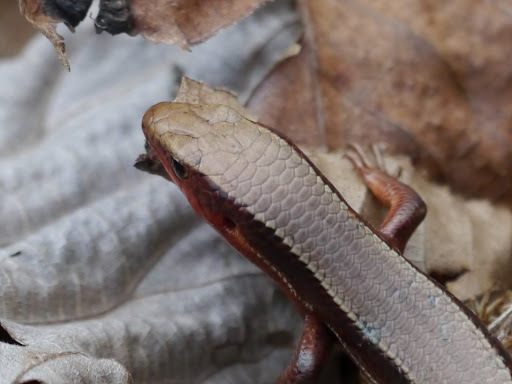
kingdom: Animalia
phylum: Chordata
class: Squamata
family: Scincidae
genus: Plestiodon
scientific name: Plestiodon anthracinus
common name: Coal skink
